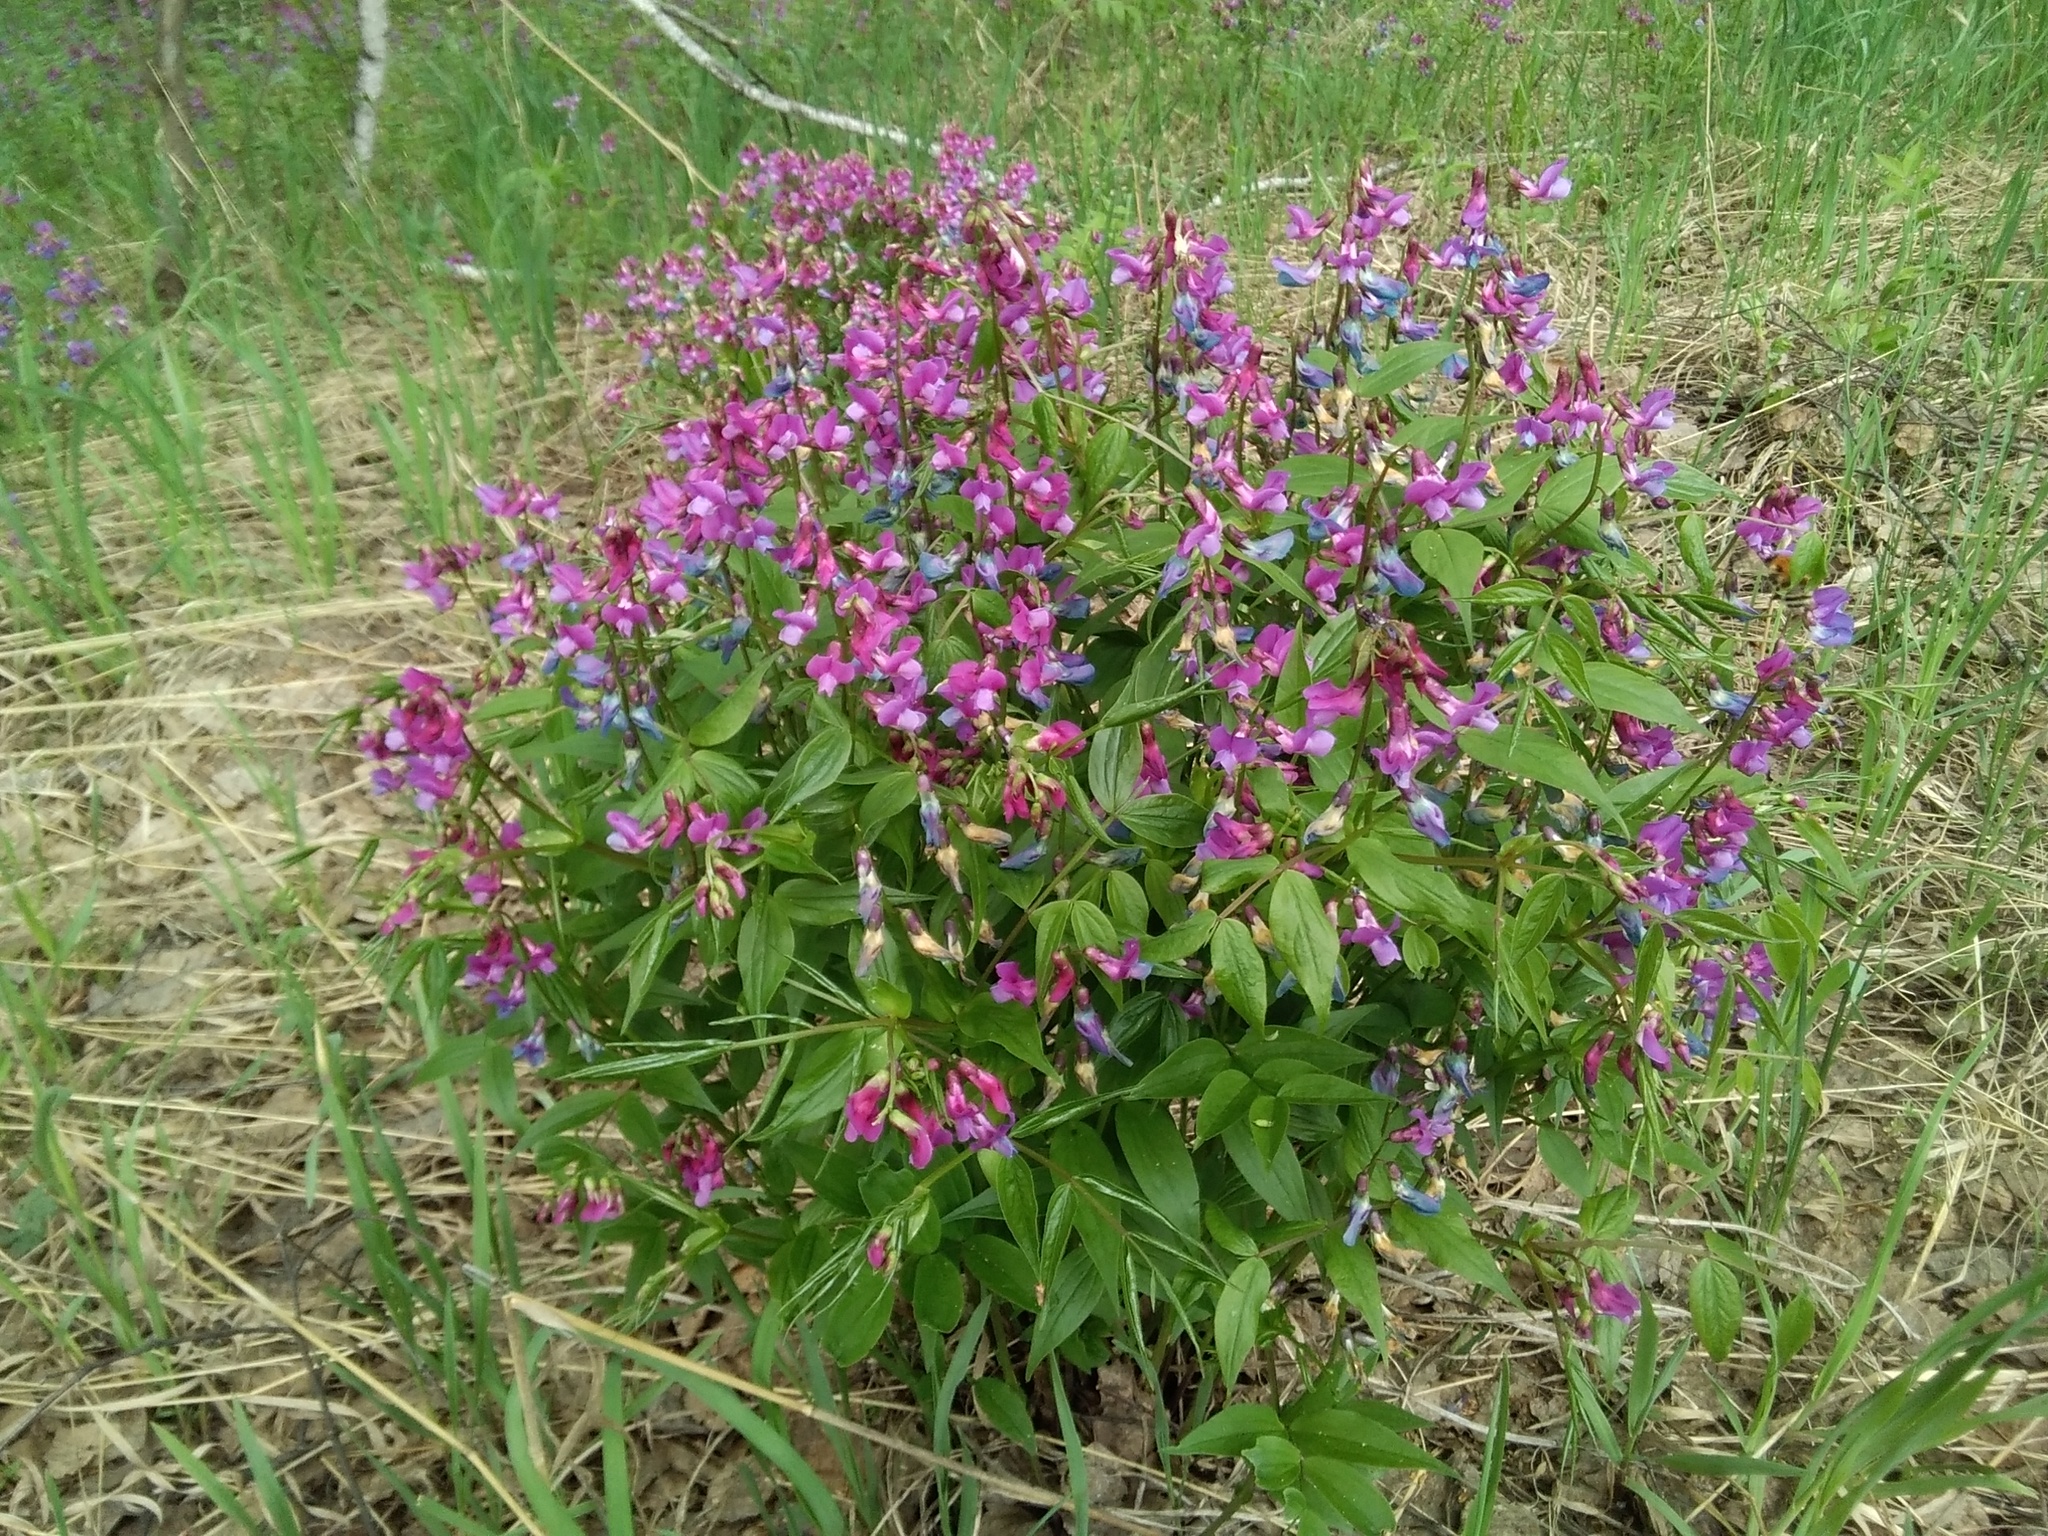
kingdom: Plantae
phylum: Tracheophyta
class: Magnoliopsida
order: Fabales
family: Fabaceae
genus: Lathyrus
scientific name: Lathyrus vernus
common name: Spring pea
